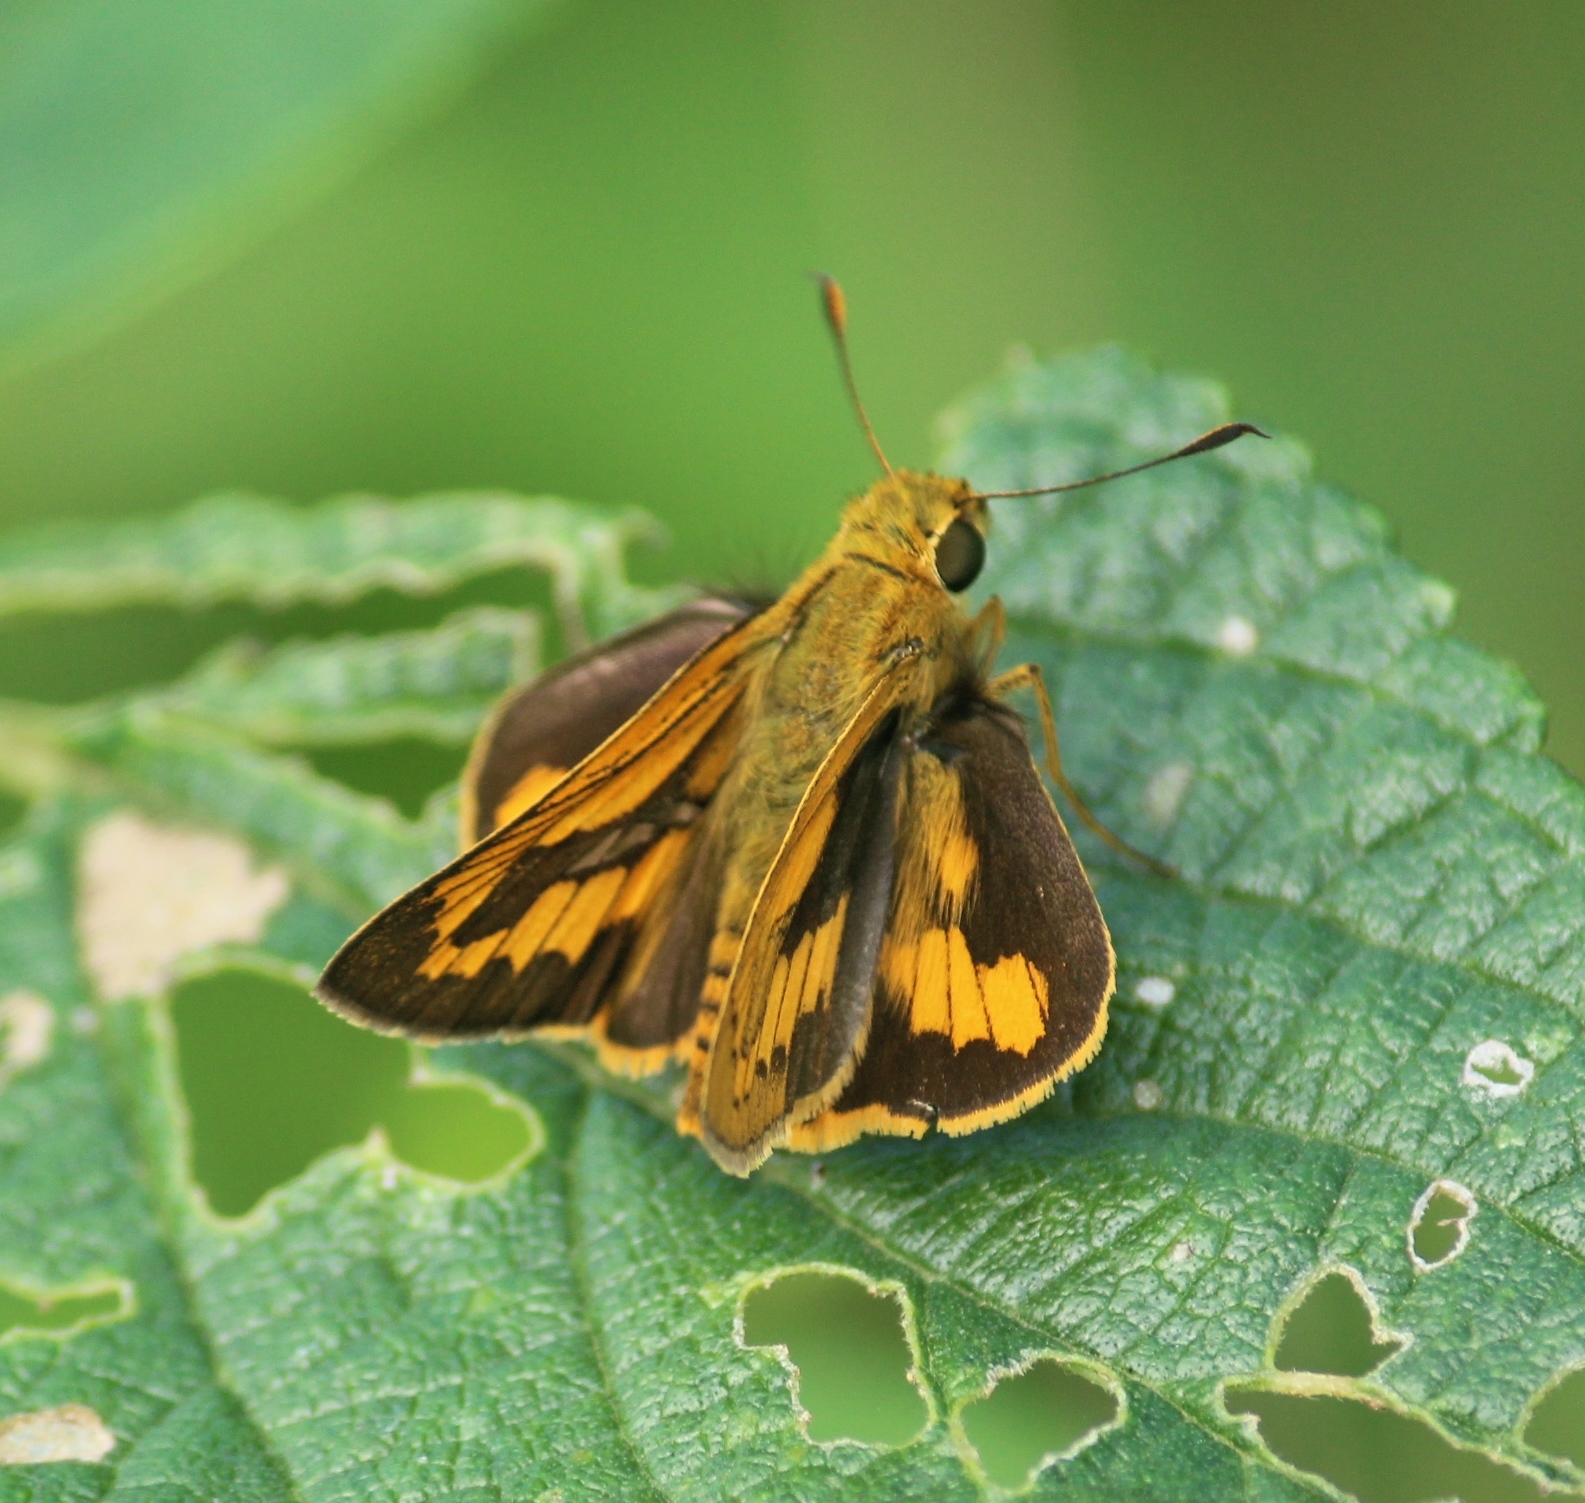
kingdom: Animalia
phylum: Arthropoda
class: Insecta
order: Lepidoptera
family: Hesperiidae
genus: Telicota
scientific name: Telicota bambusae
